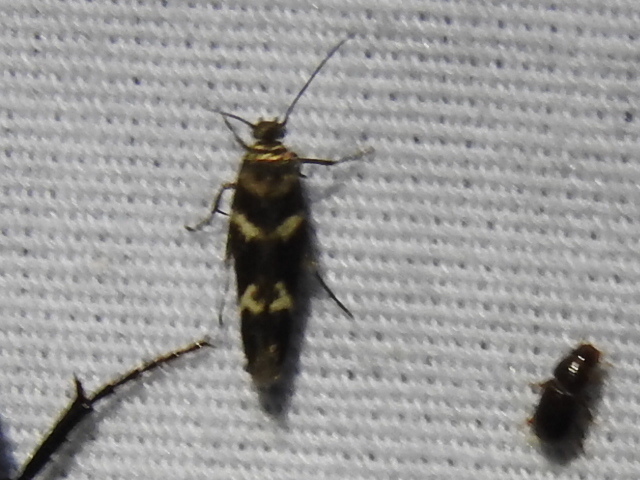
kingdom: Animalia
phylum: Arthropoda
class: Insecta
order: Lepidoptera
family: Scythrididae
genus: Scythris
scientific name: Scythris trivinctella
